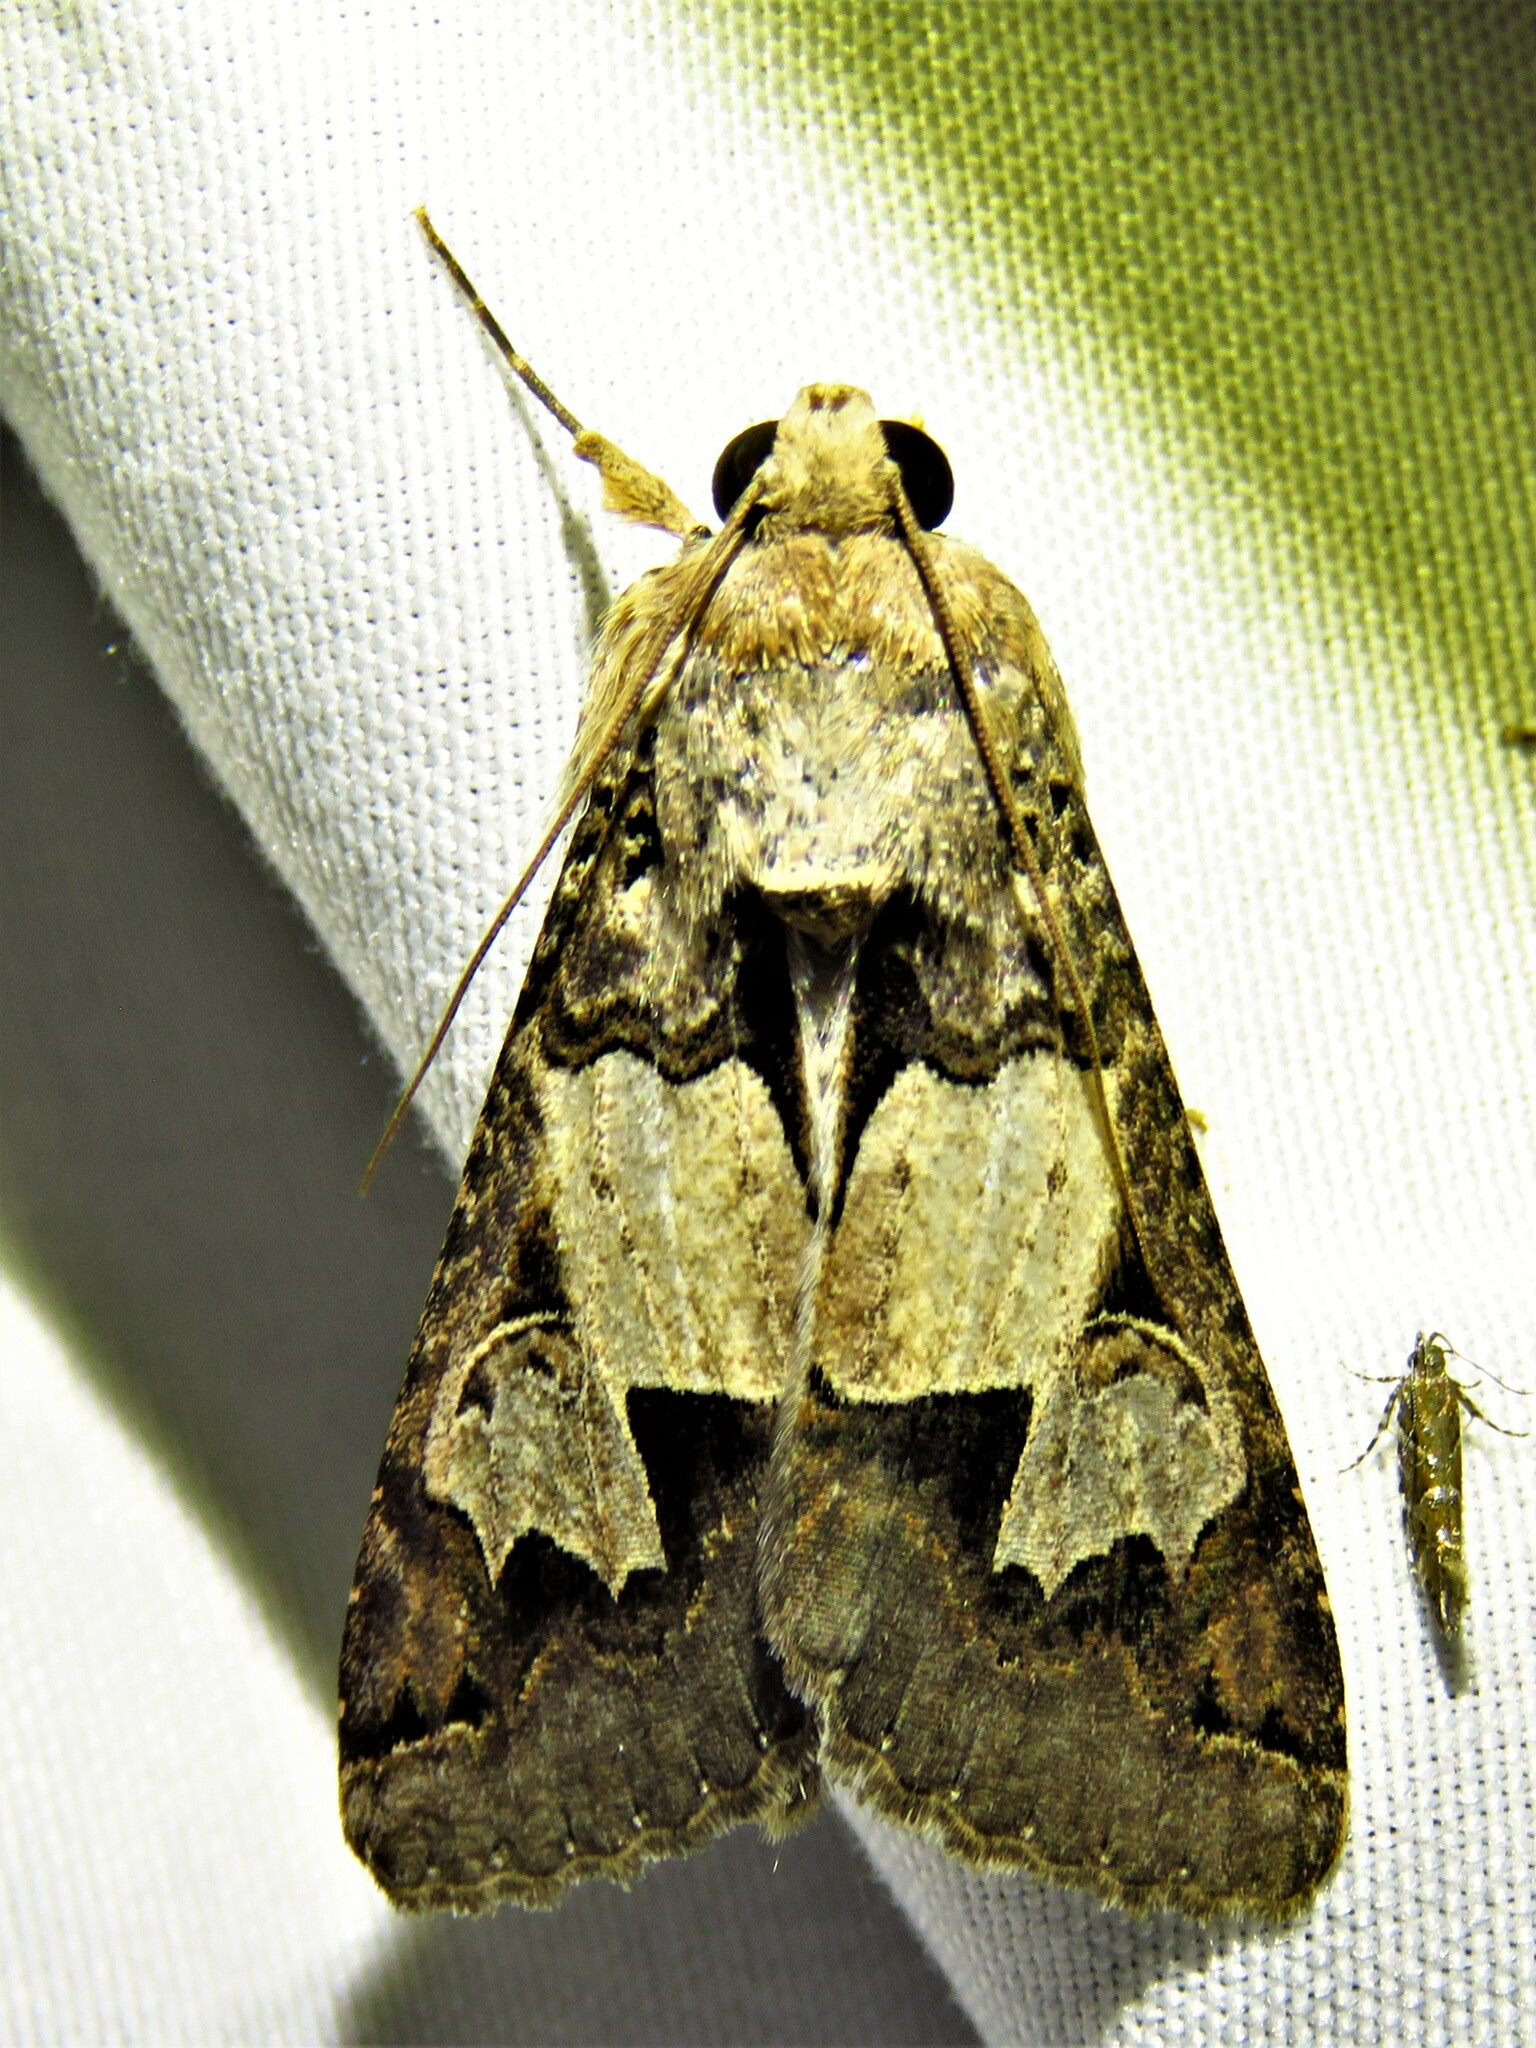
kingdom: Animalia
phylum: Arthropoda
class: Insecta
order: Lepidoptera
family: Erebidae
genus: Melipotis
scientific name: Melipotis agrotoides
